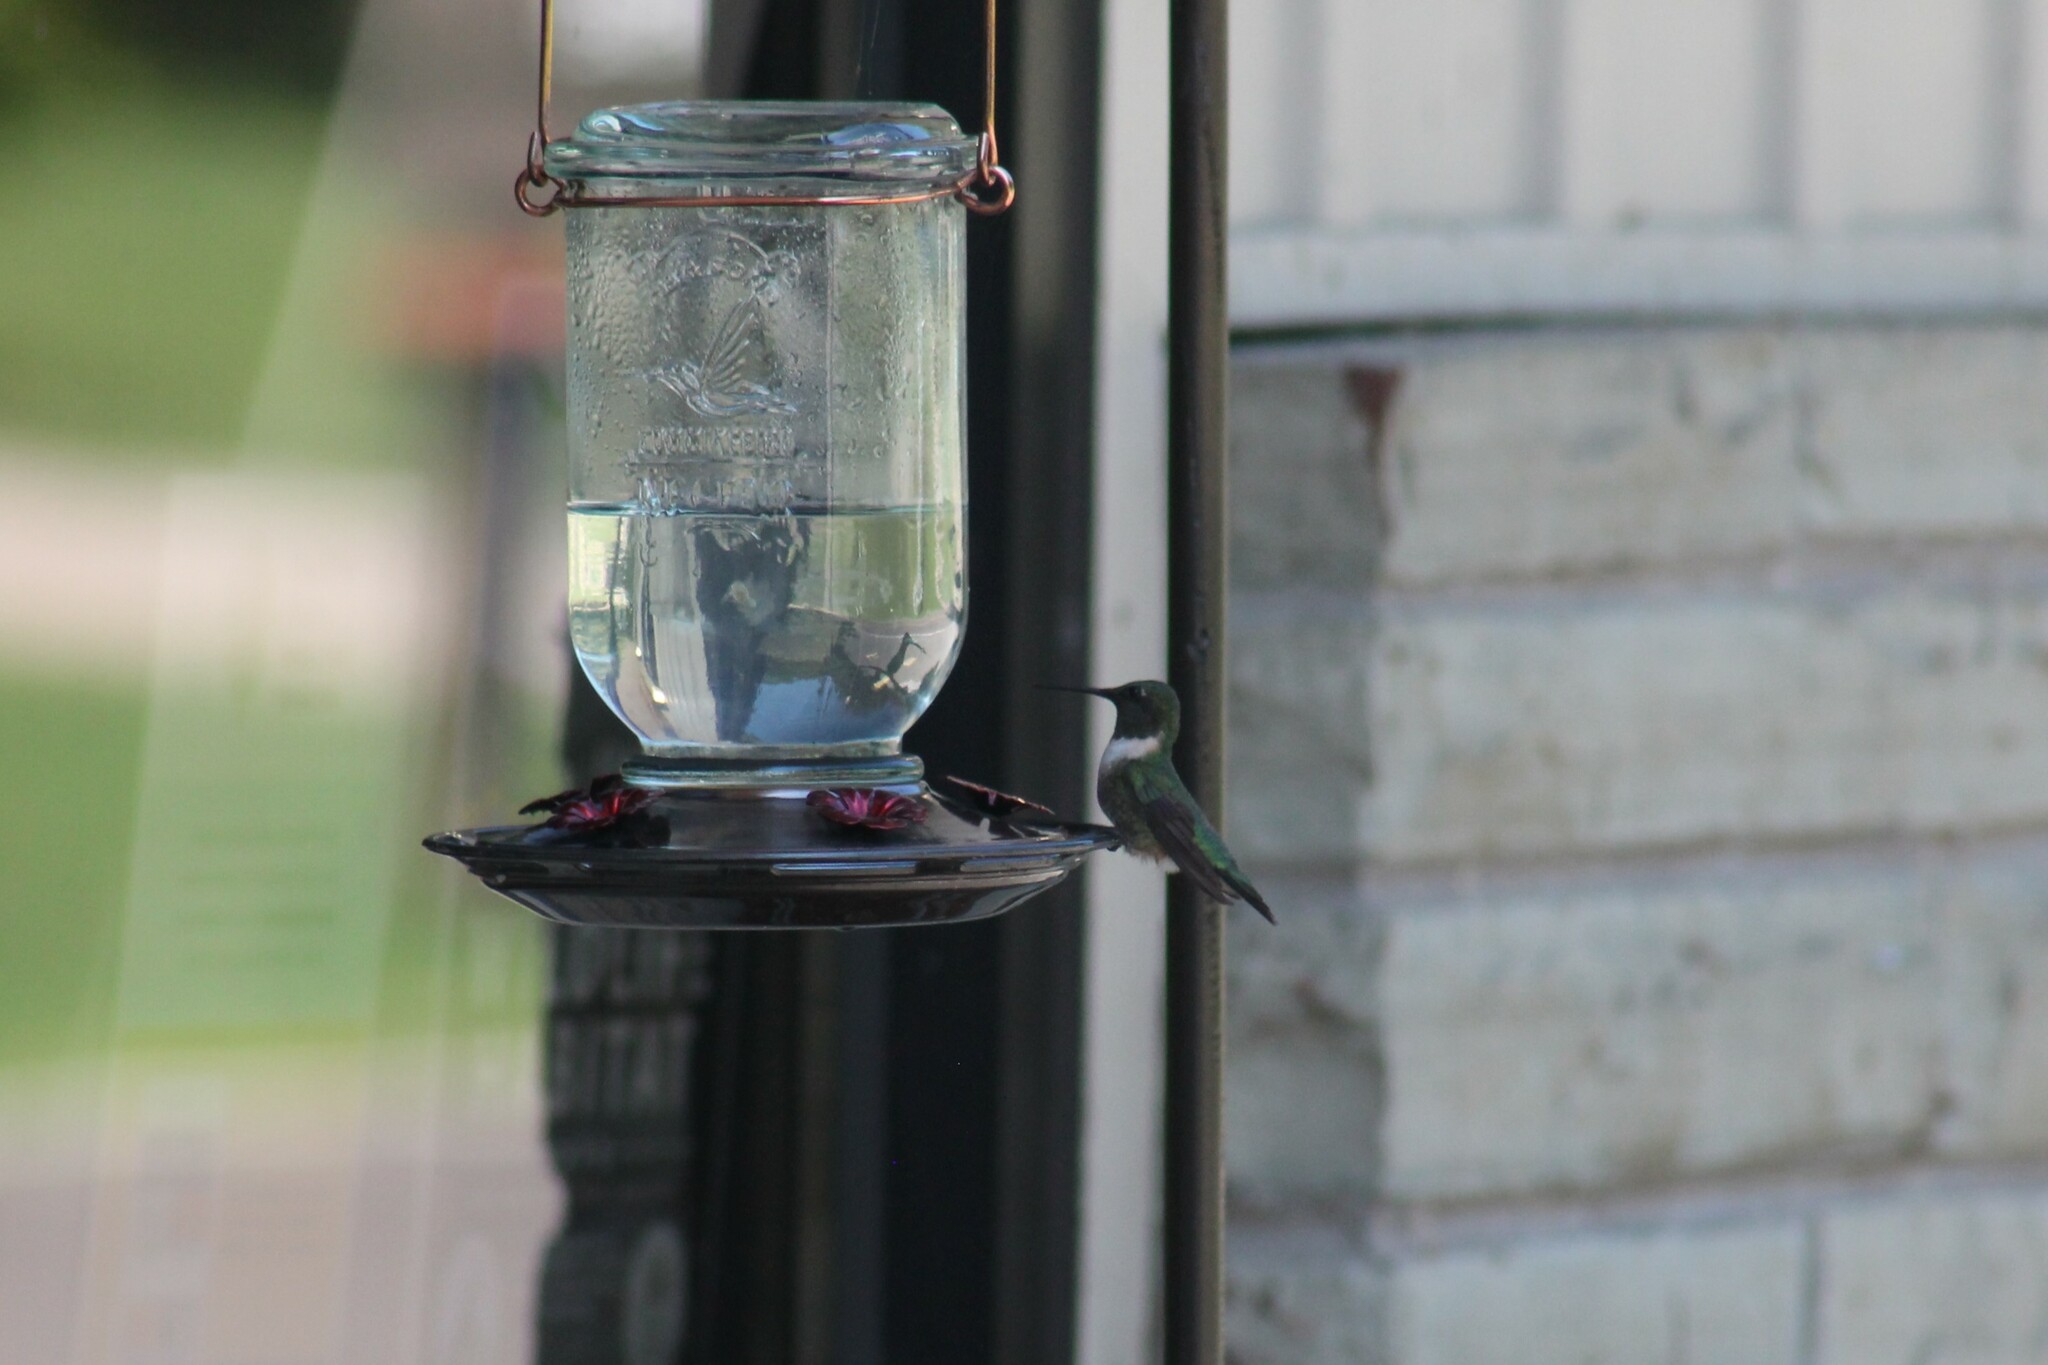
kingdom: Animalia
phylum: Chordata
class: Aves
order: Apodiformes
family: Trochilidae
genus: Archilochus
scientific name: Archilochus colubris
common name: Ruby-throated hummingbird
